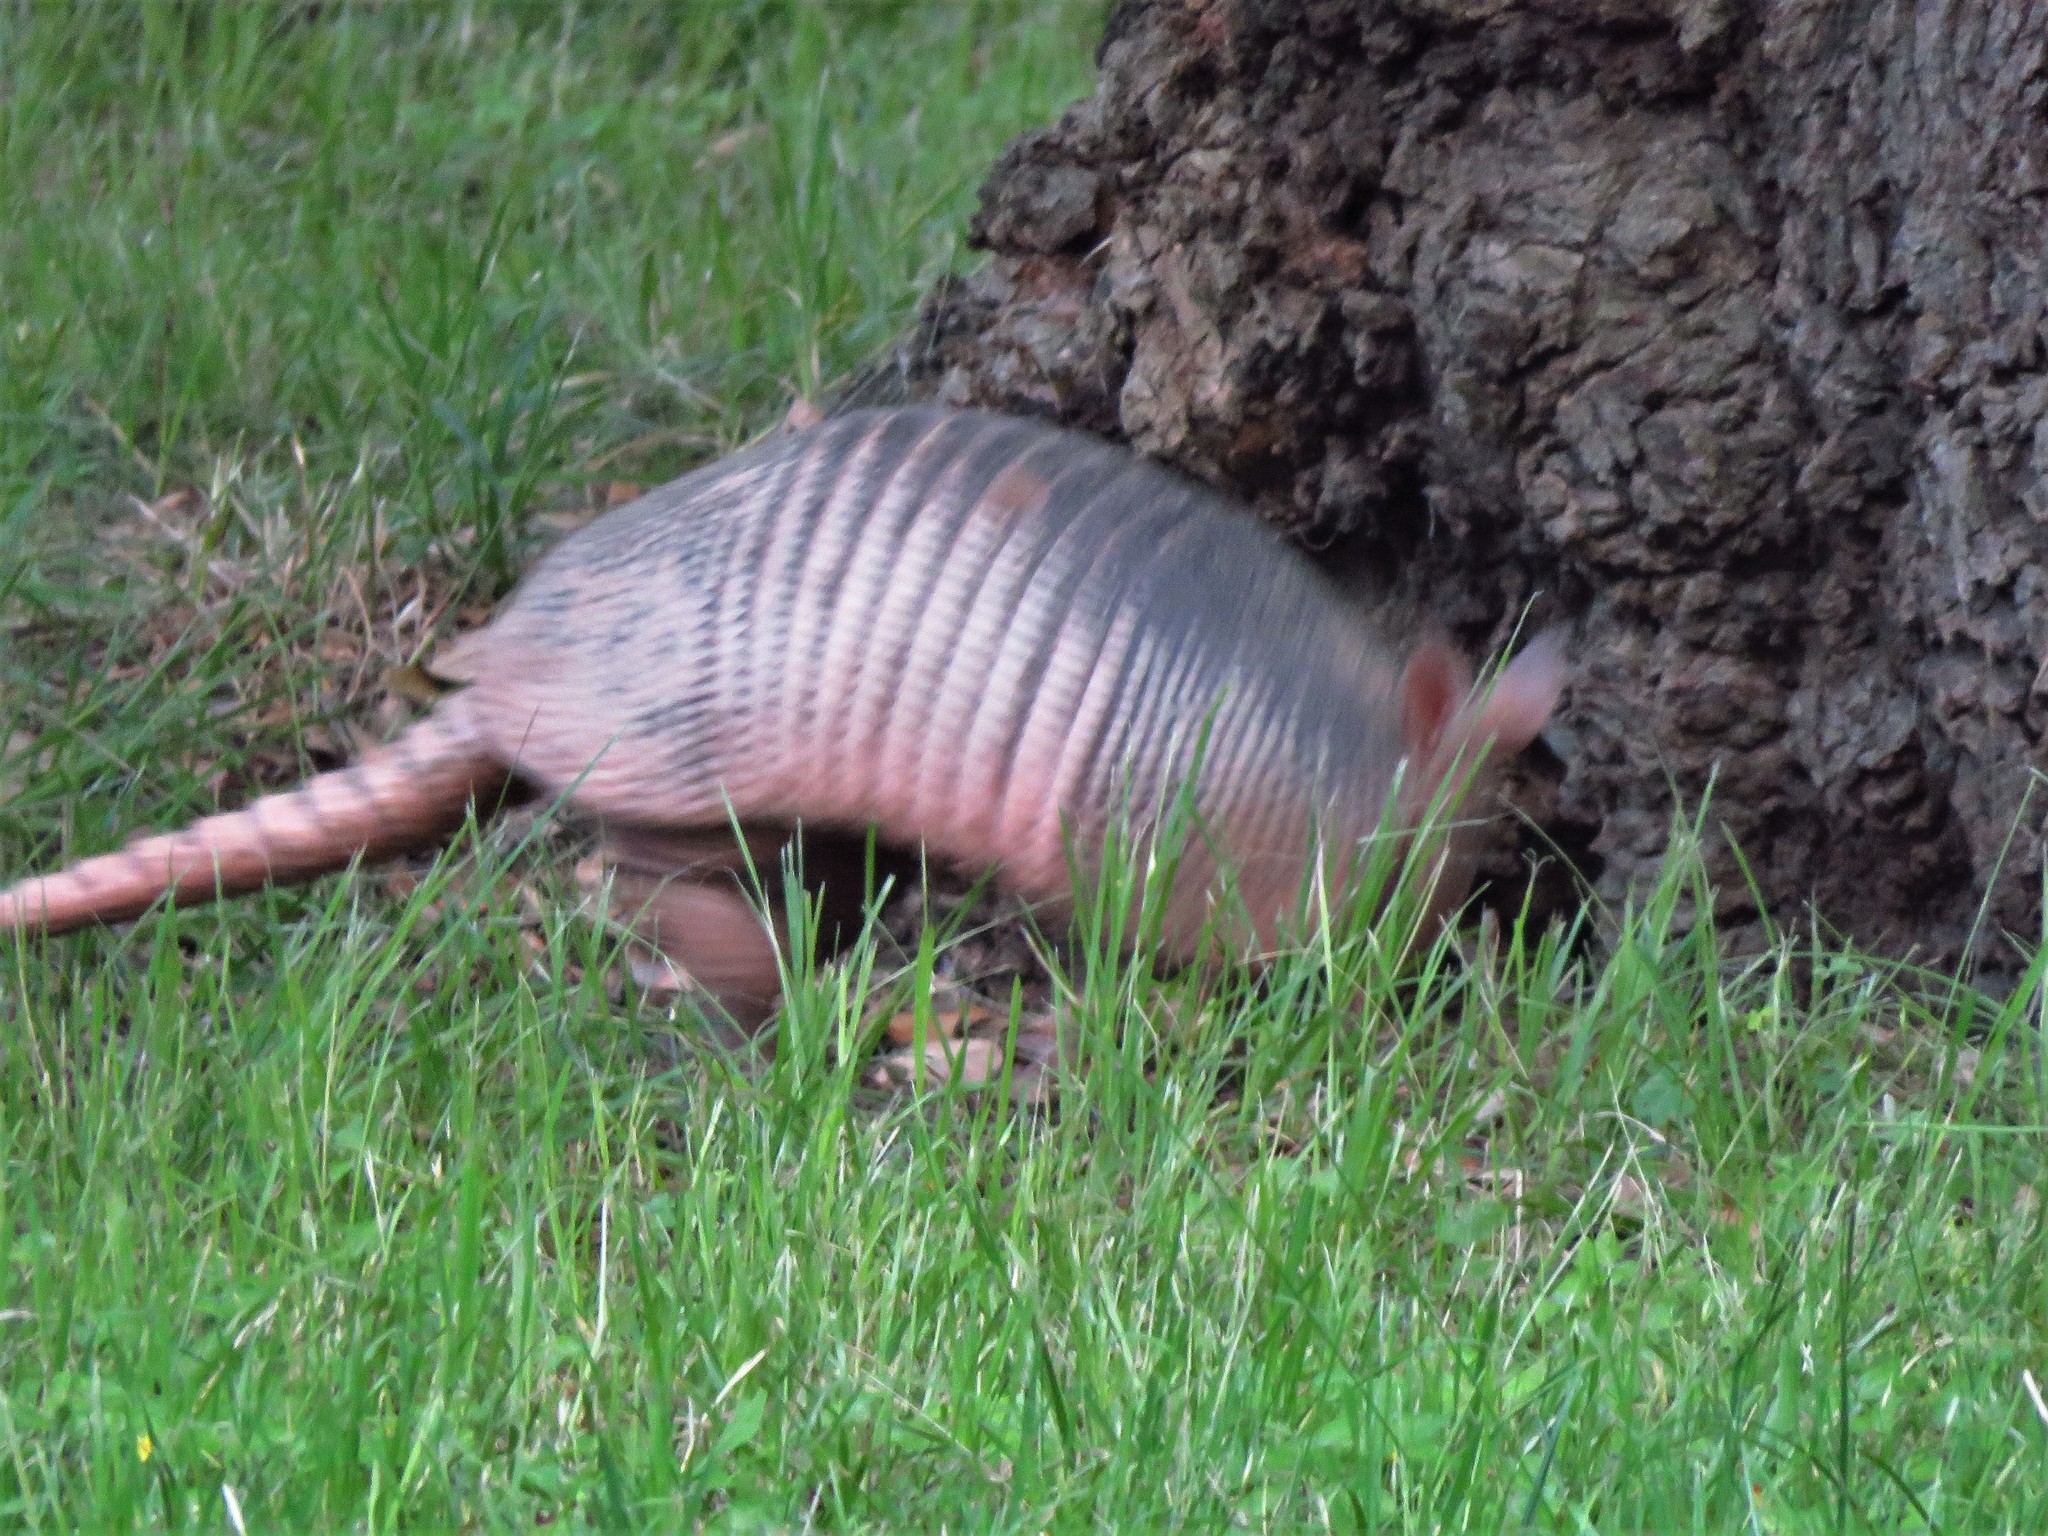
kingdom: Animalia
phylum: Chordata
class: Mammalia
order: Cingulata
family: Dasypodidae
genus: Dasypus
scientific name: Dasypus novemcinctus
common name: Nine-banded armadillo
